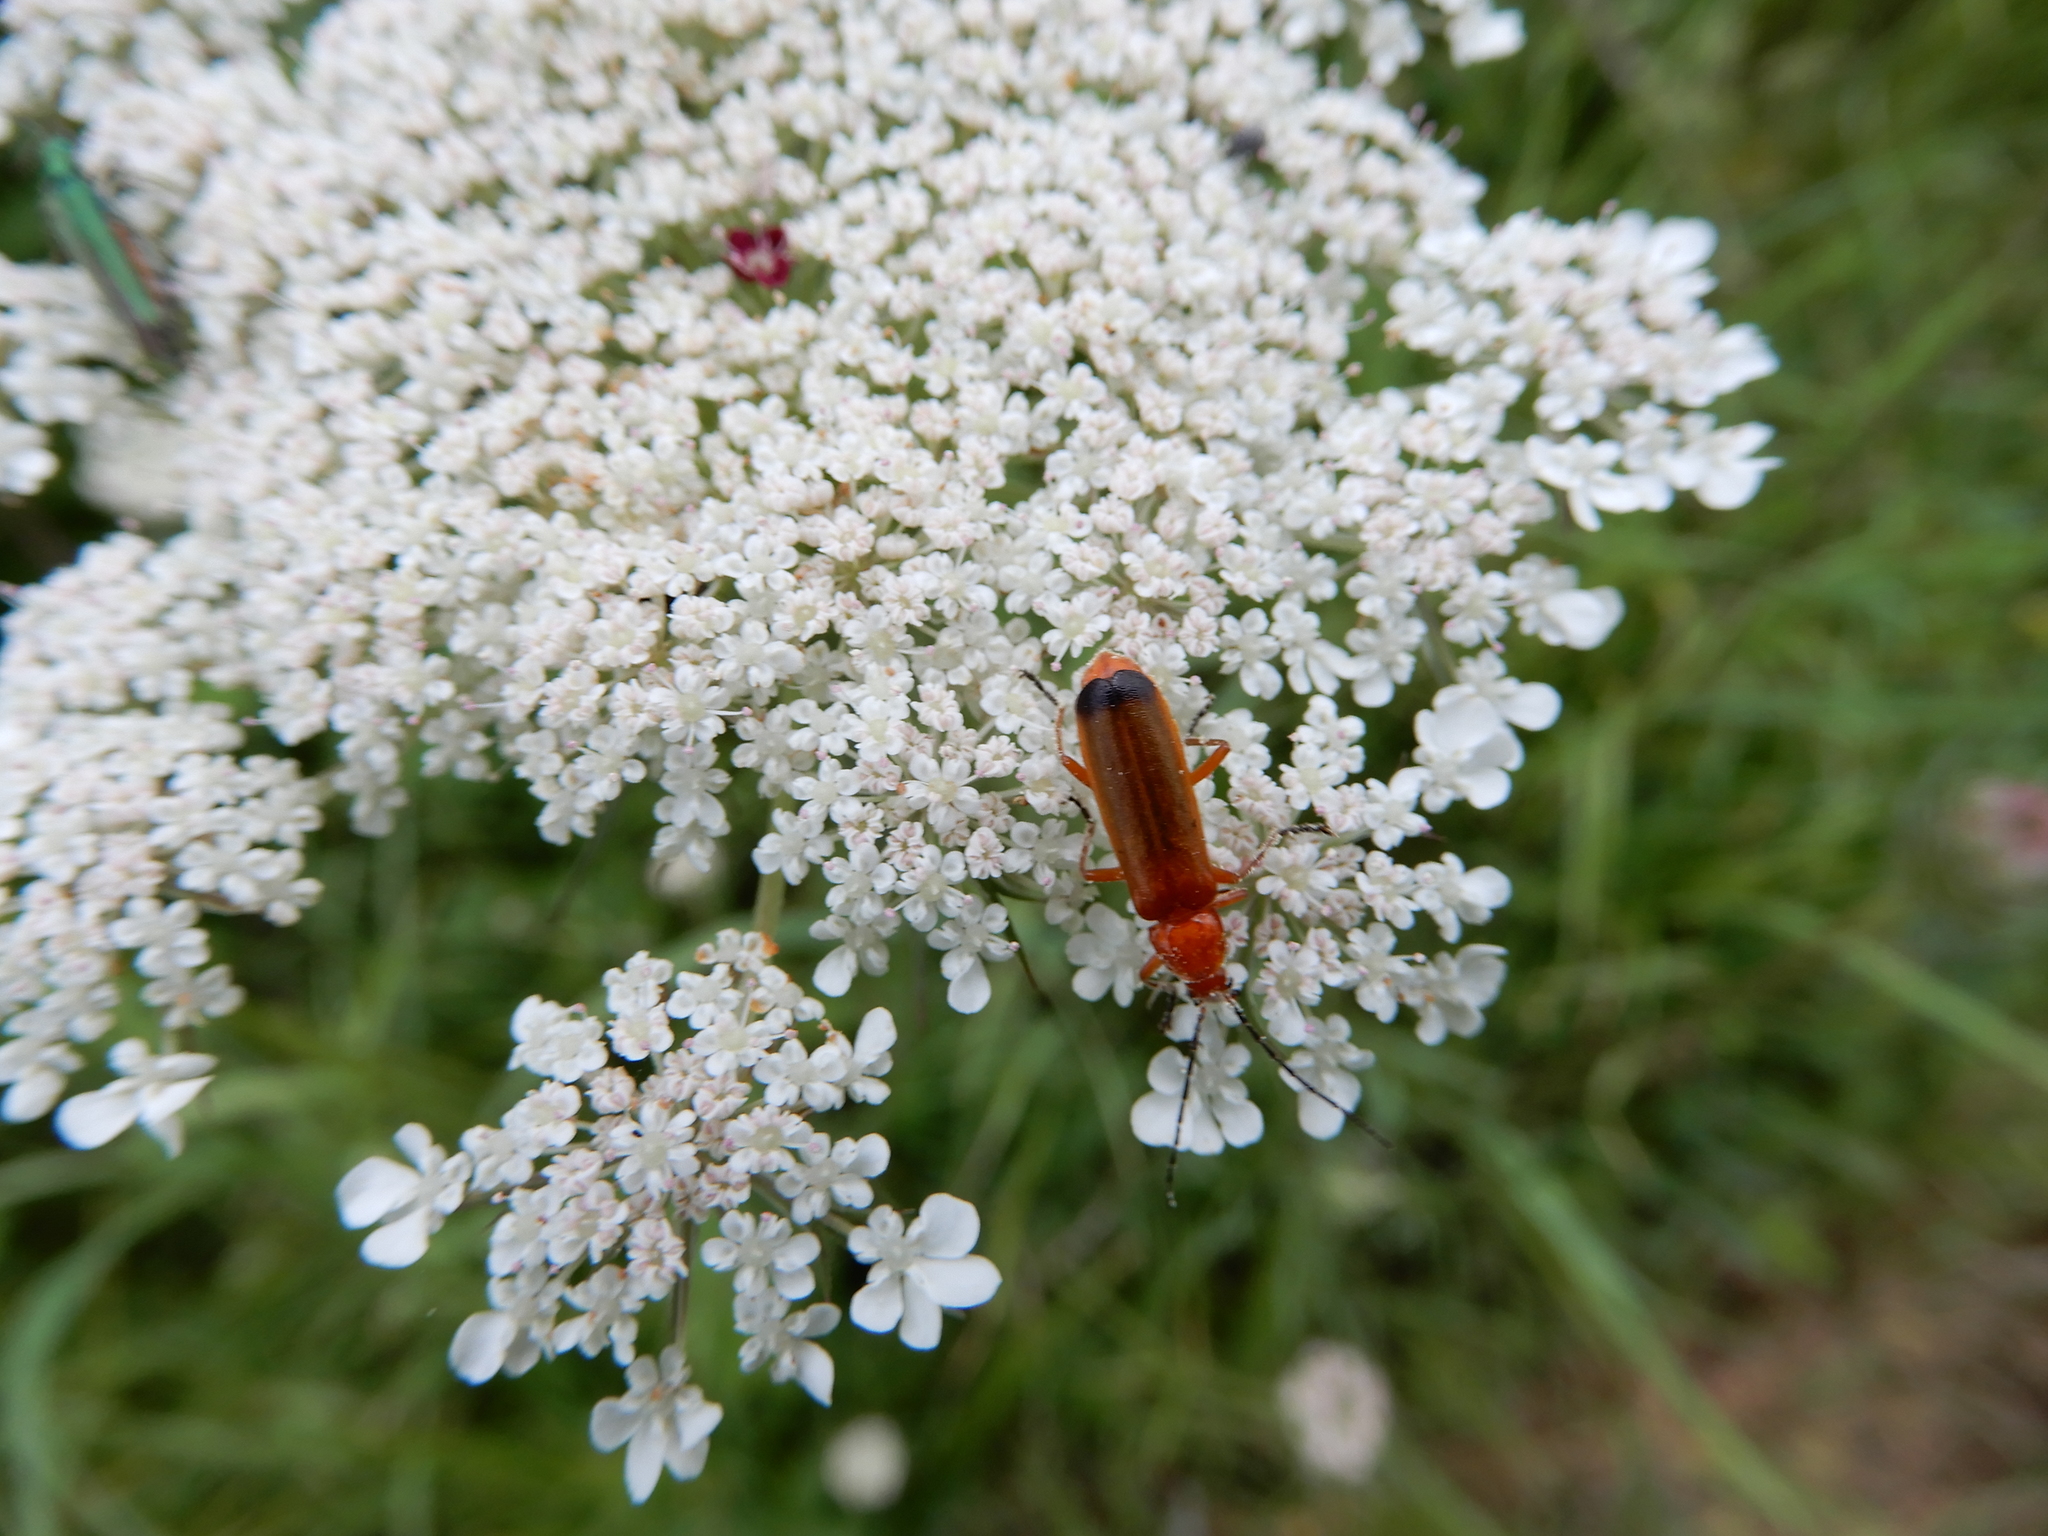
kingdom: Animalia
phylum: Arthropoda
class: Insecta
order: Coleoptera
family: Cantharidae
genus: Rhagonycha
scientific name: Rhagonycha fulva
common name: Common red soldier beetle
